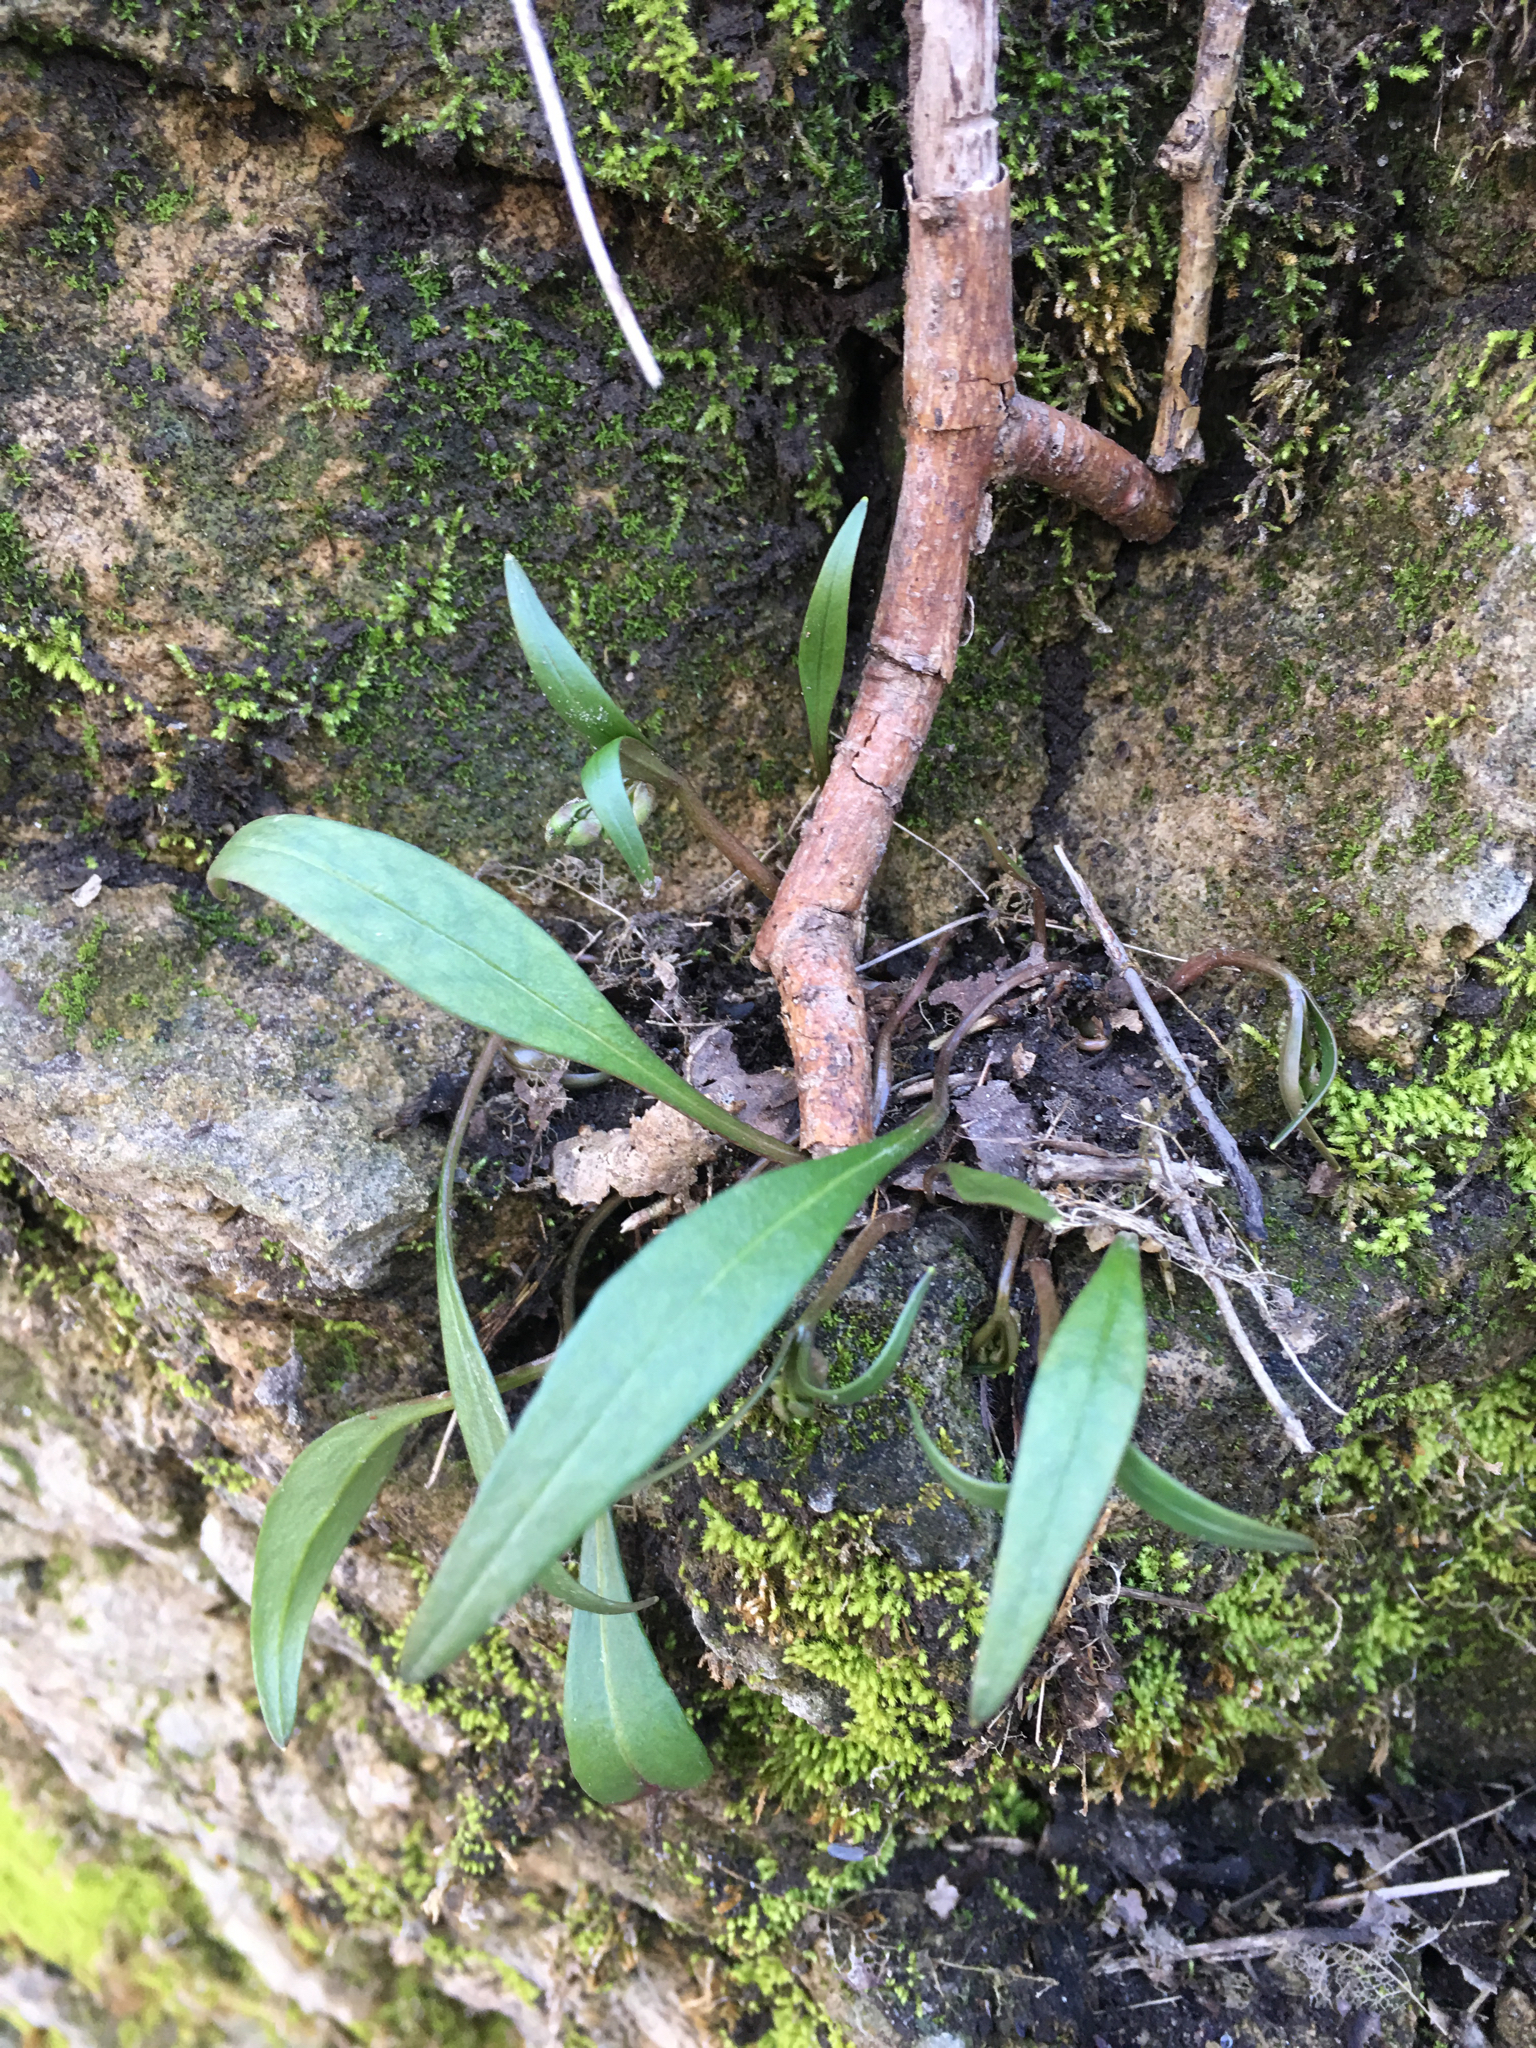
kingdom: Plantae
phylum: Tracheophyta
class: Magnoliopsida
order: Caryophyllales
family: Montiaceae
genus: Claytonia
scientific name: Claytonia virginica
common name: Virginia springbeauty
